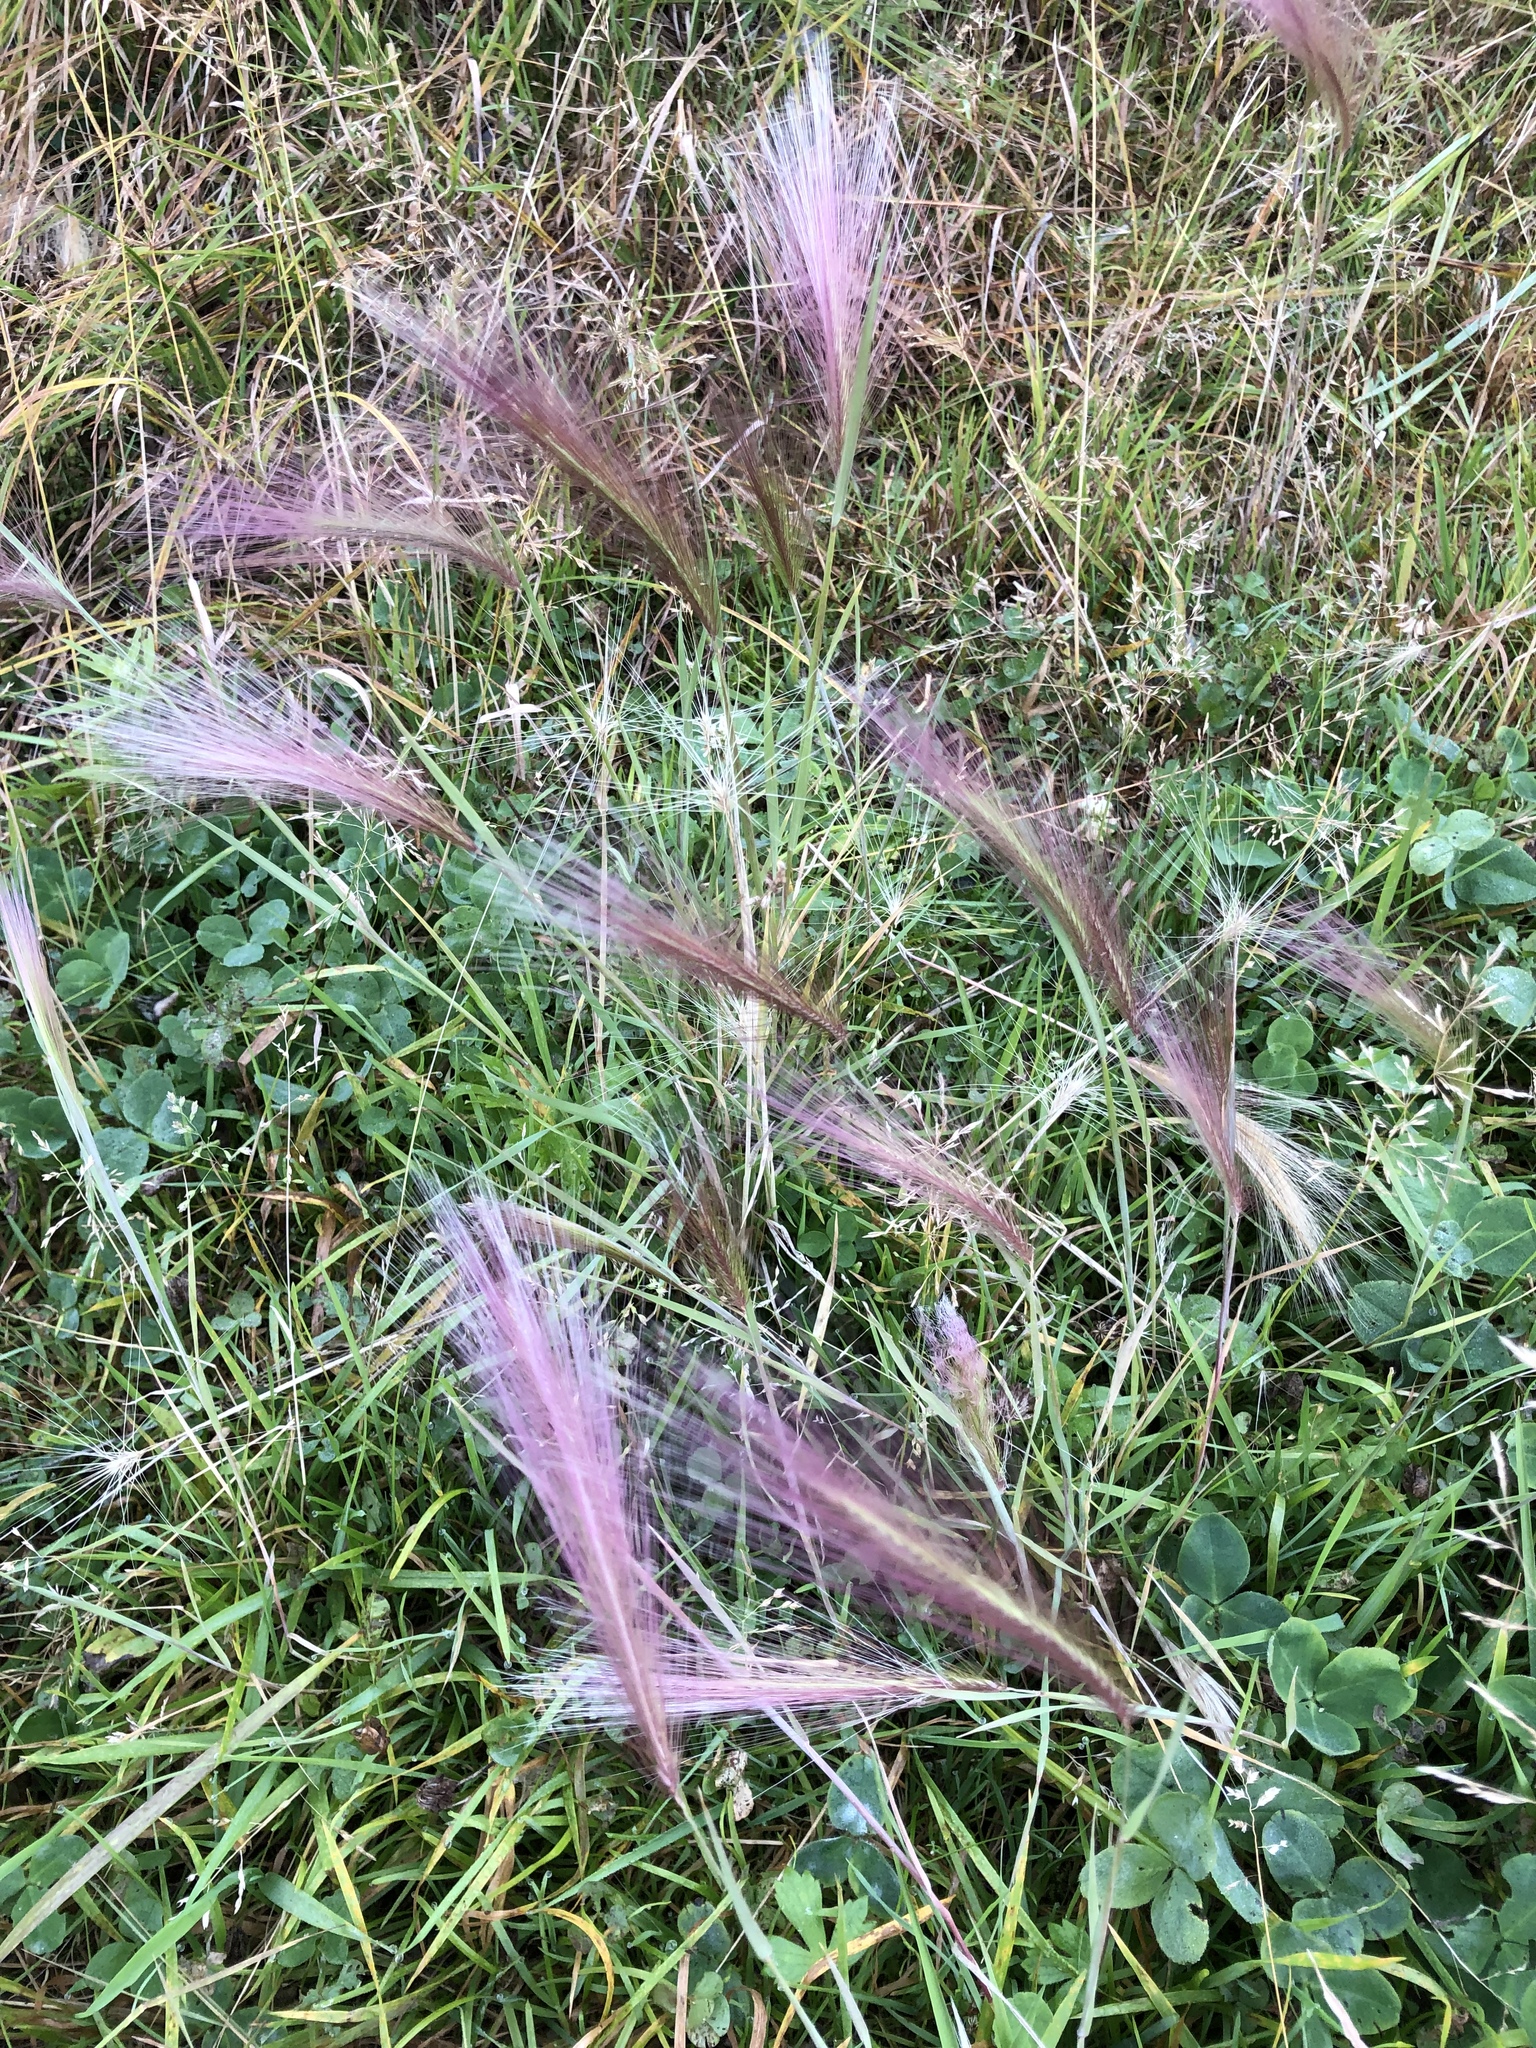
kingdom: Plantae
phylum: Tracheophyta
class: Liliopsida
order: Poales
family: Poaceae
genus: Hordeum
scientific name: Hordeum jubatum
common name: Foxtail barley
